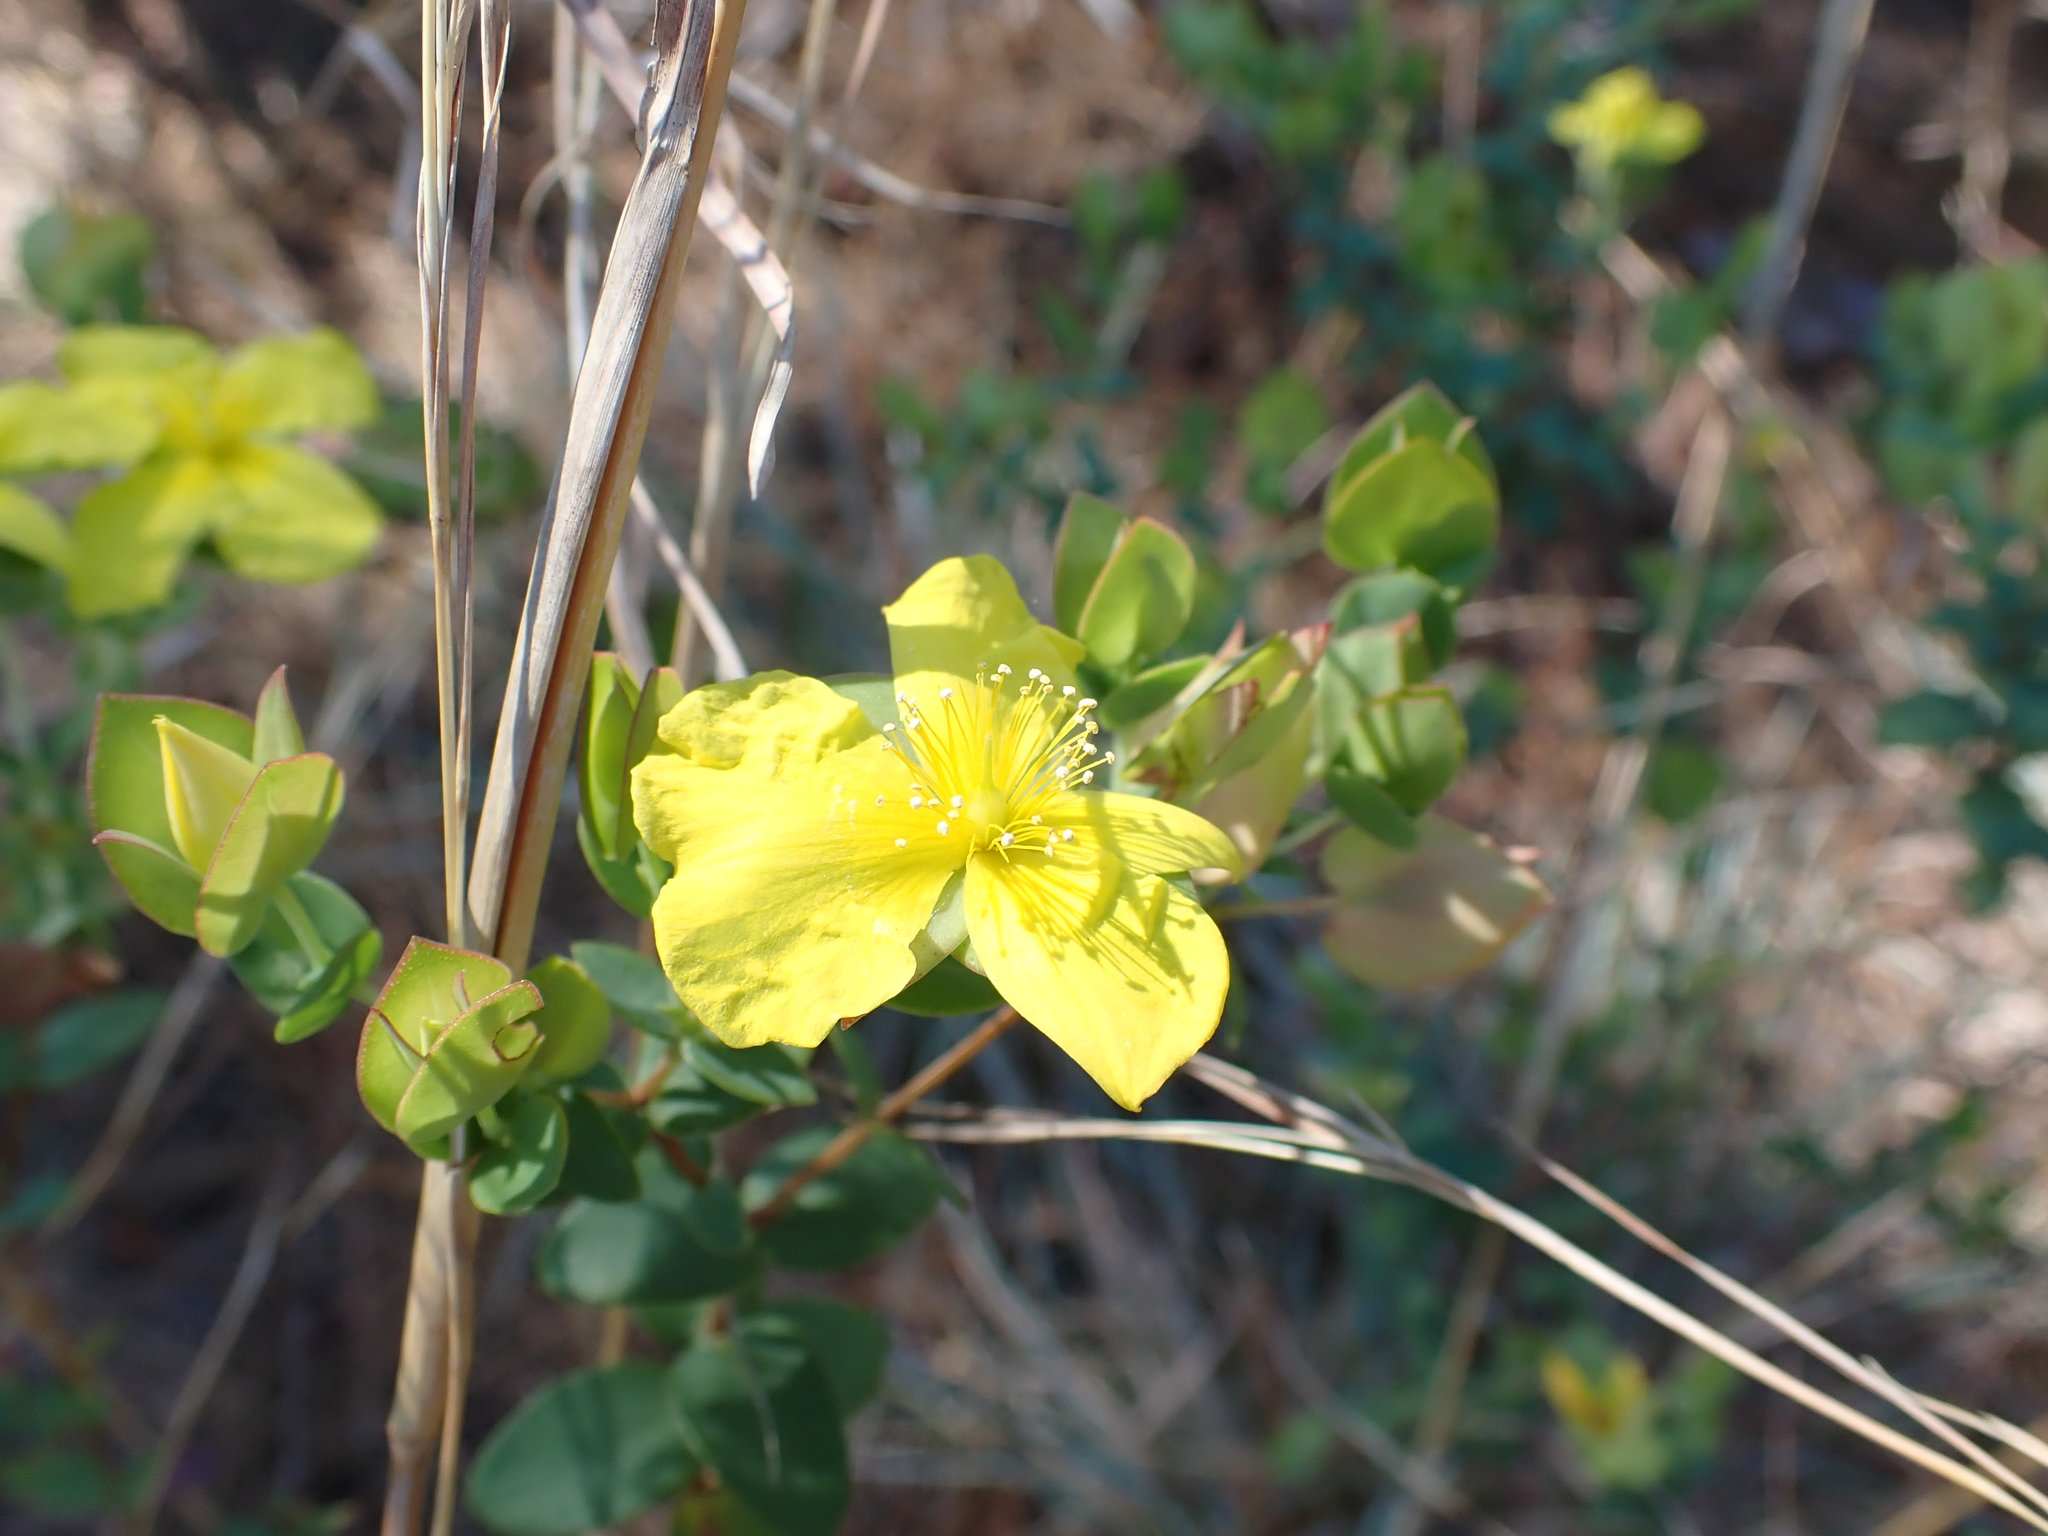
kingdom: Plantae
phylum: Tracheophyta
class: Magnoliopsida
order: Malpighiales
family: Hypericaceae
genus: Hypericum
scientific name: Hypericum tetrapetalum
